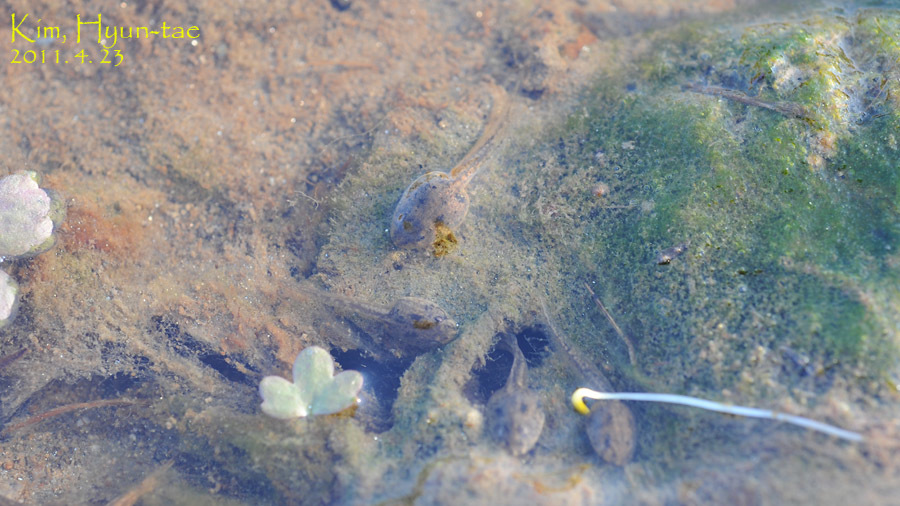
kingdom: Animalia
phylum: Chordata
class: Amphibia
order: Anura
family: Ranidae
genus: Rana
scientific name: Rana coreana
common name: Korean brown frog
